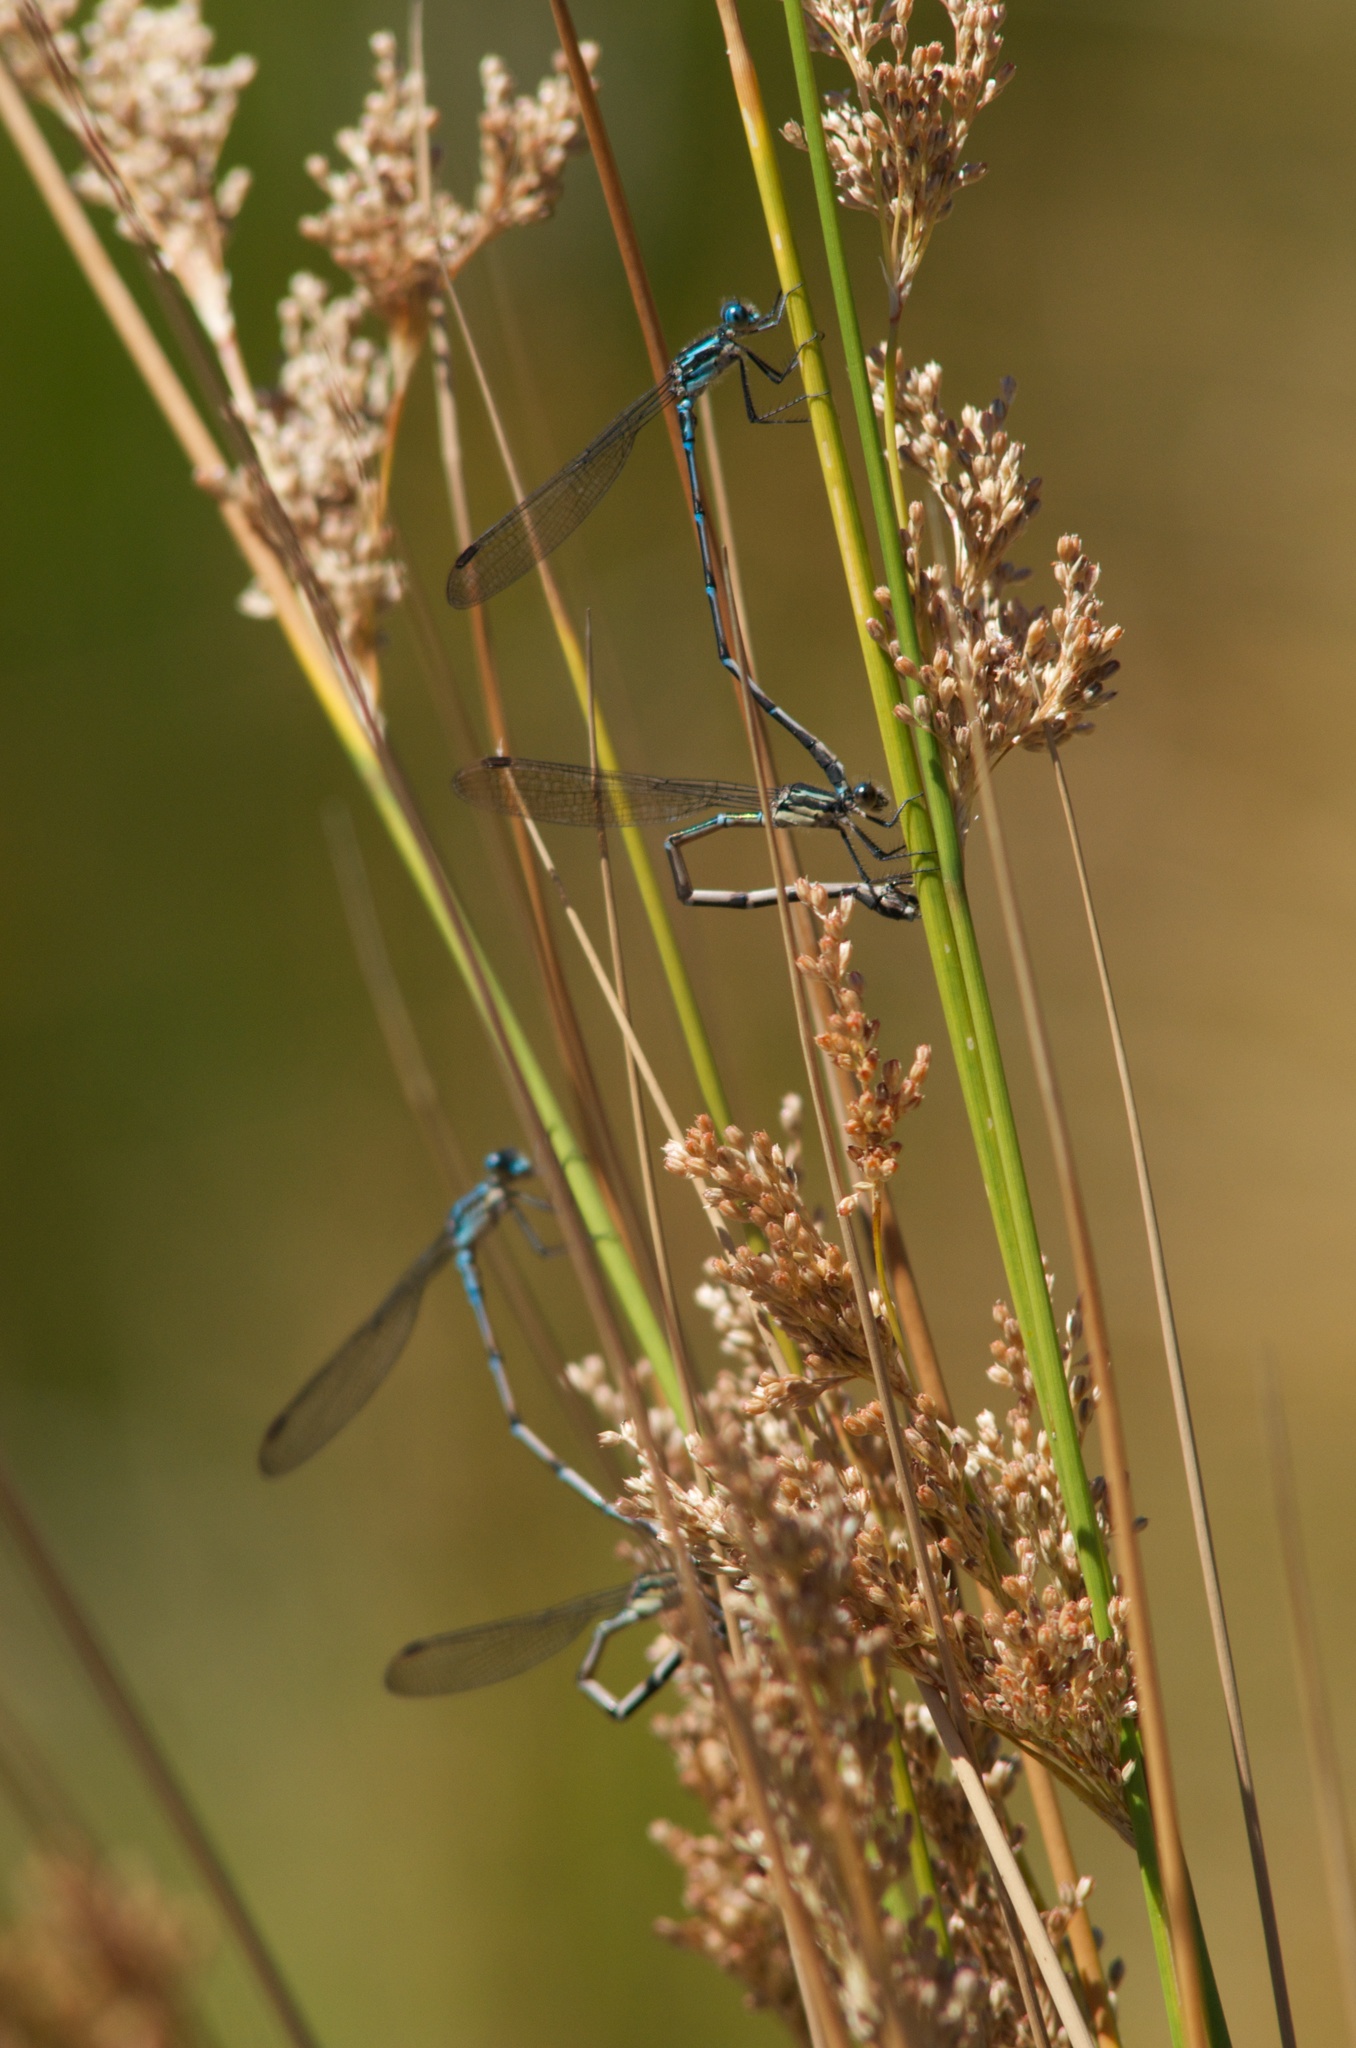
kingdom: Animalia
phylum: Arthropoda
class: Insecta
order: Odonata
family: Lestidae
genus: Austrolestes
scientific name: Austrolestes colensonis
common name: Blue damselfly
